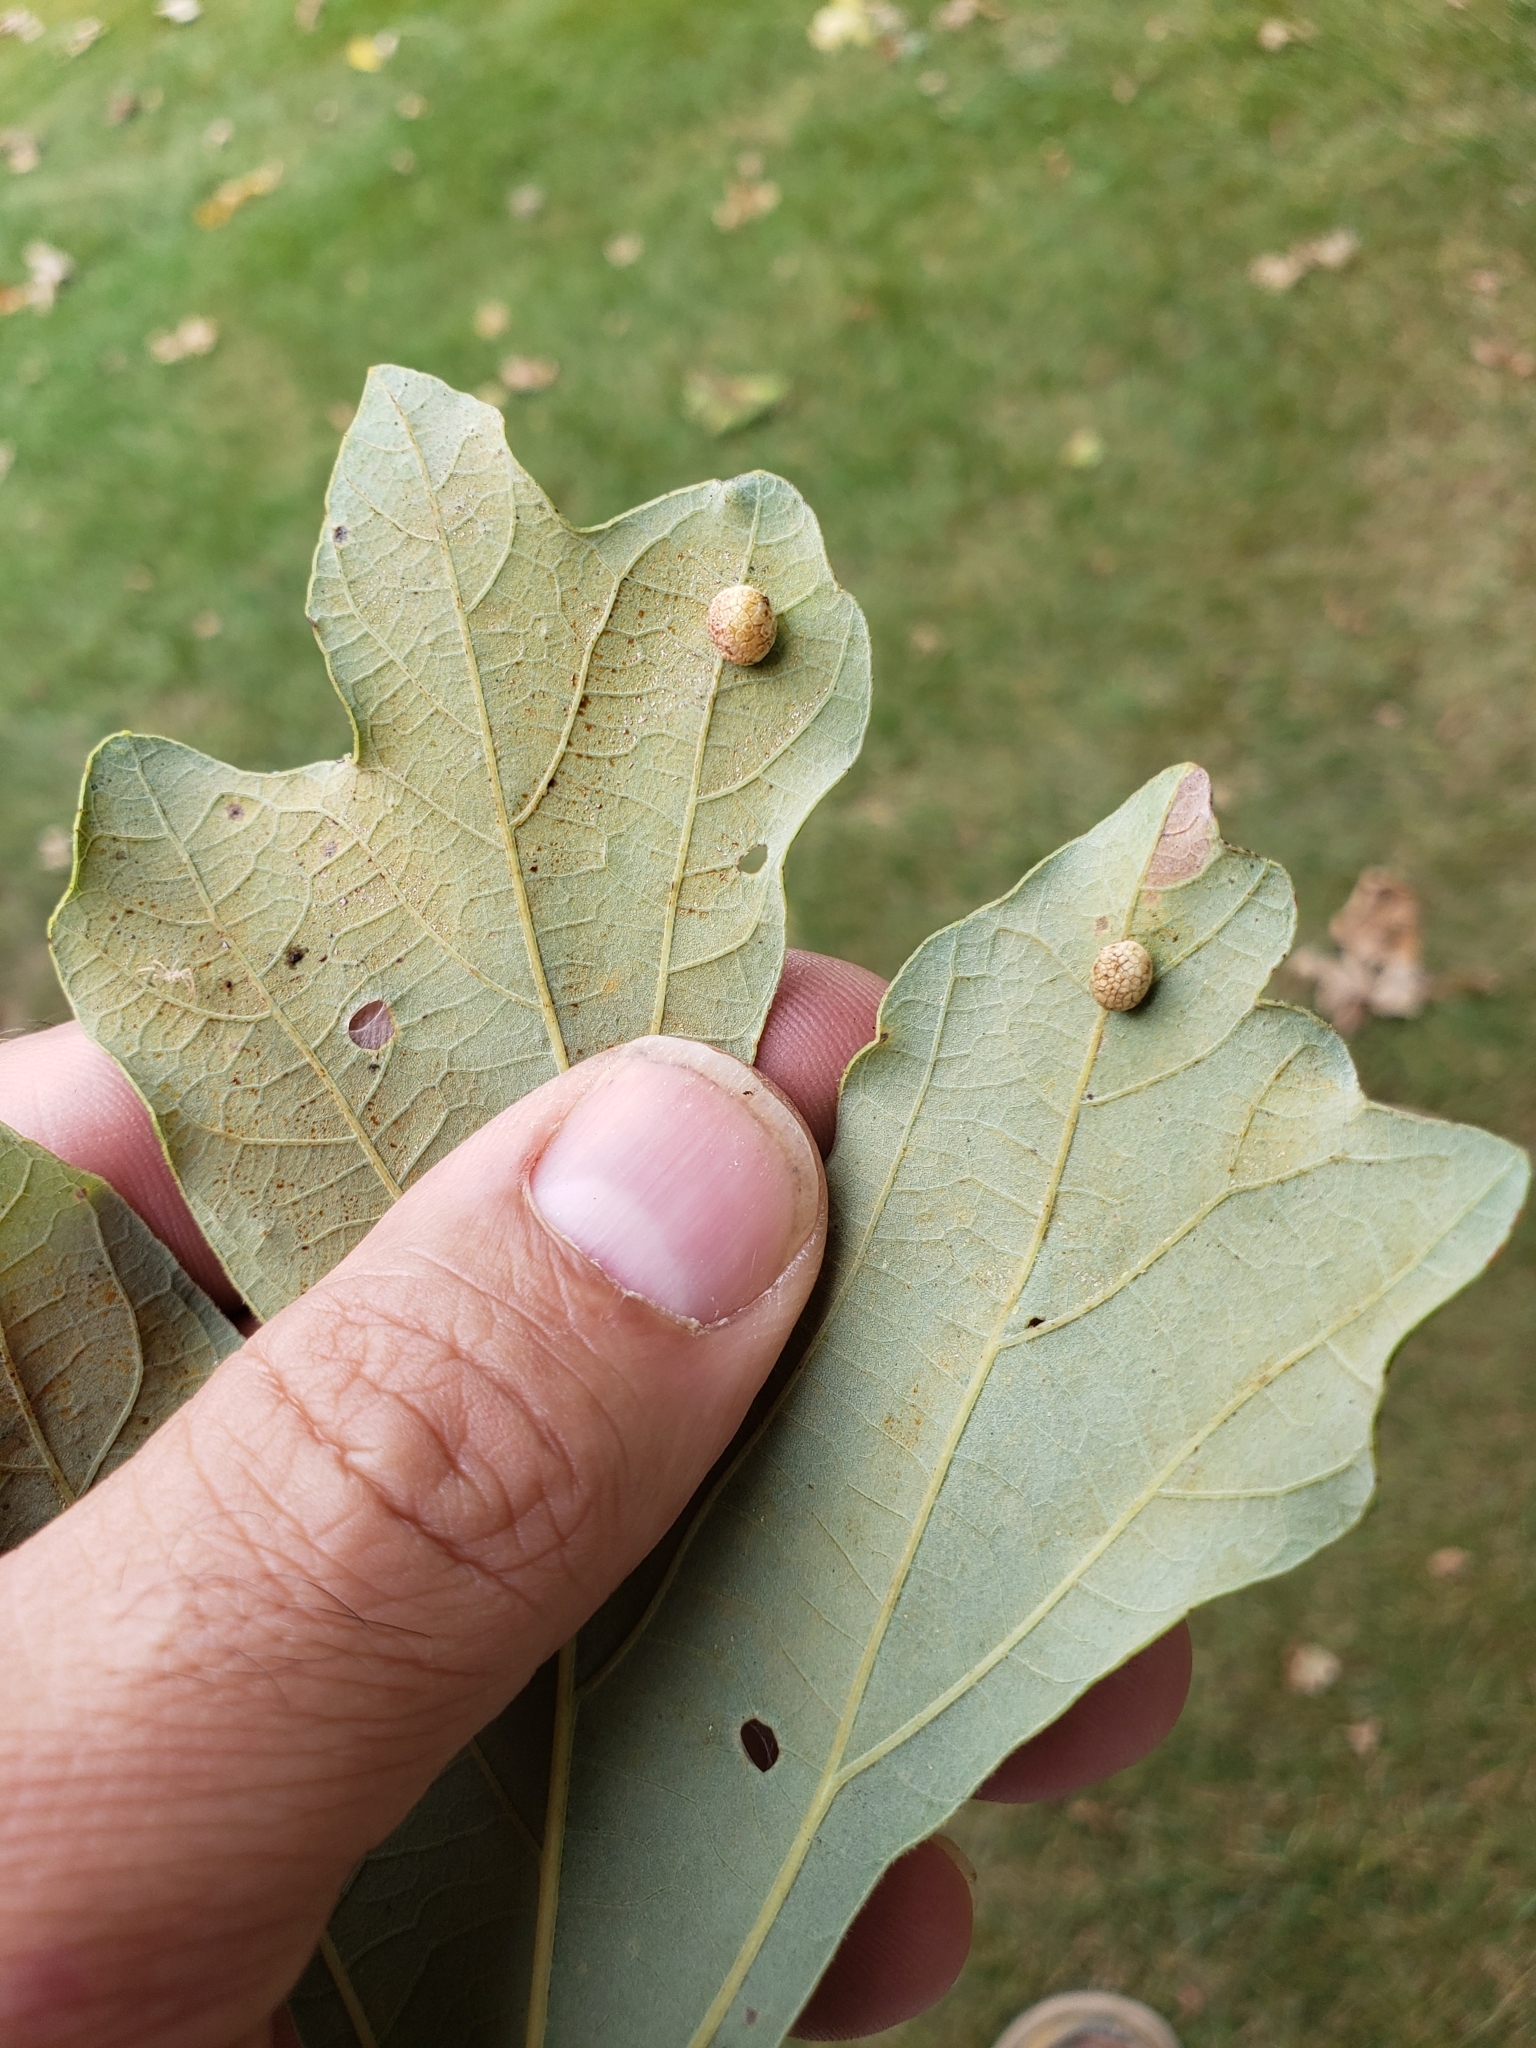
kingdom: Animalia
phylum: Arthropoda
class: Insecta
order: Hymenoptera
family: Cynipidae
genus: Acraspis
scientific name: Acraspis quercushirta
